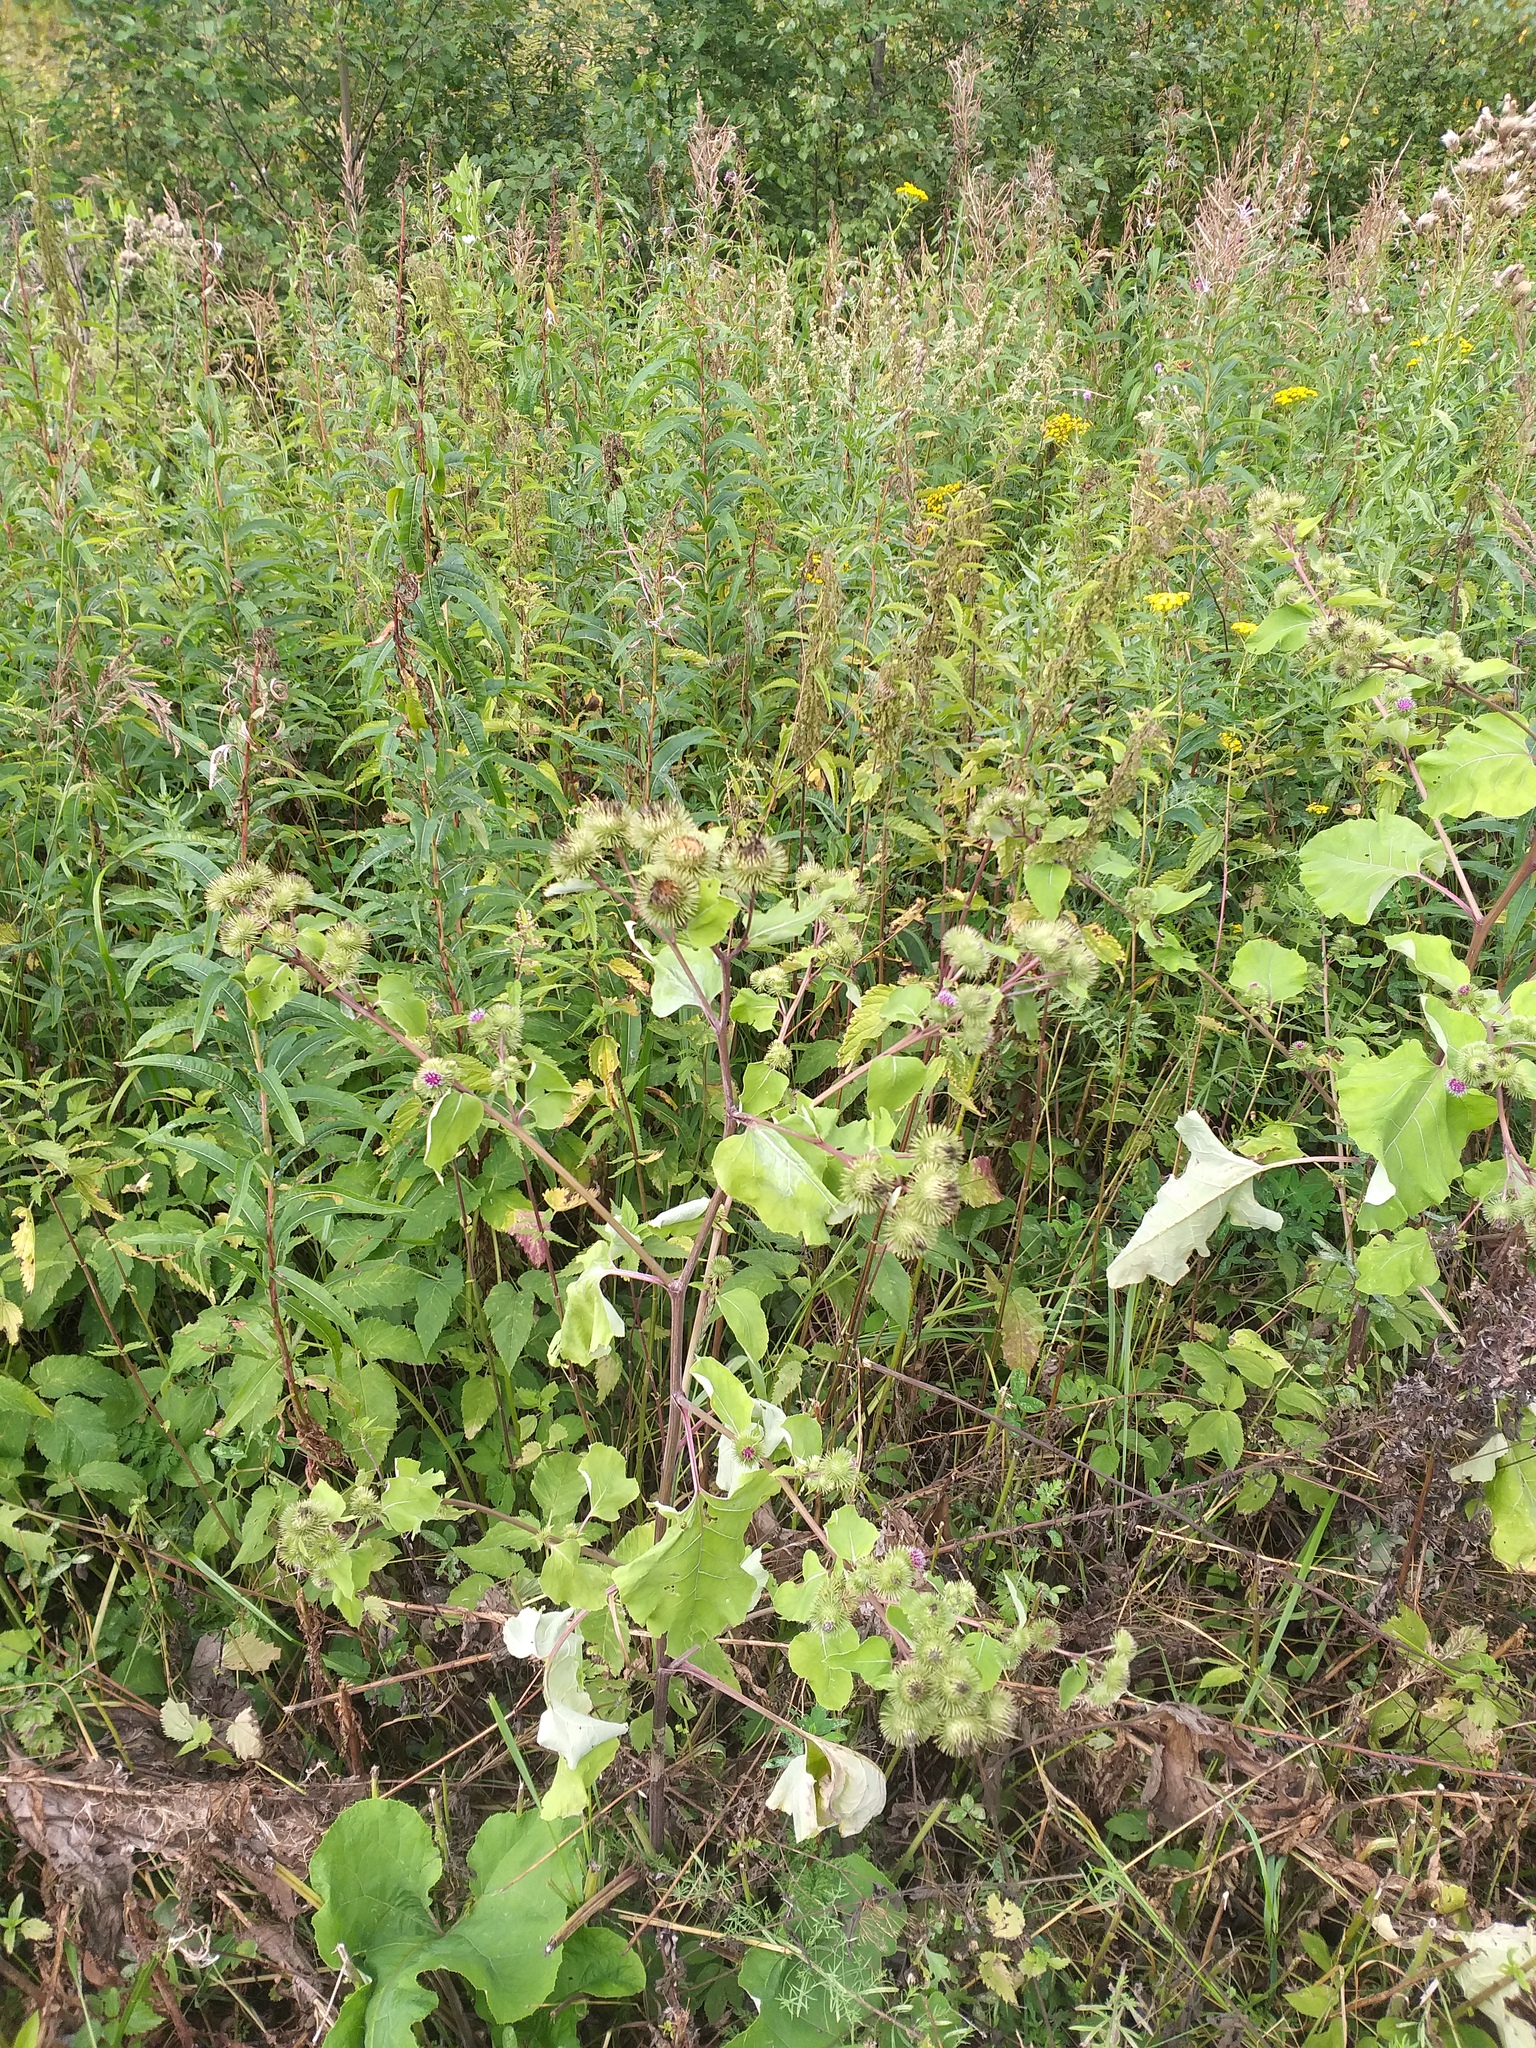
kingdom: Plantae
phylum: Tracheophyta
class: Magnoliopsida
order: Asterales
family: Asteraceae
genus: Arctium
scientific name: Arctium lappa
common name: Greater burdock
